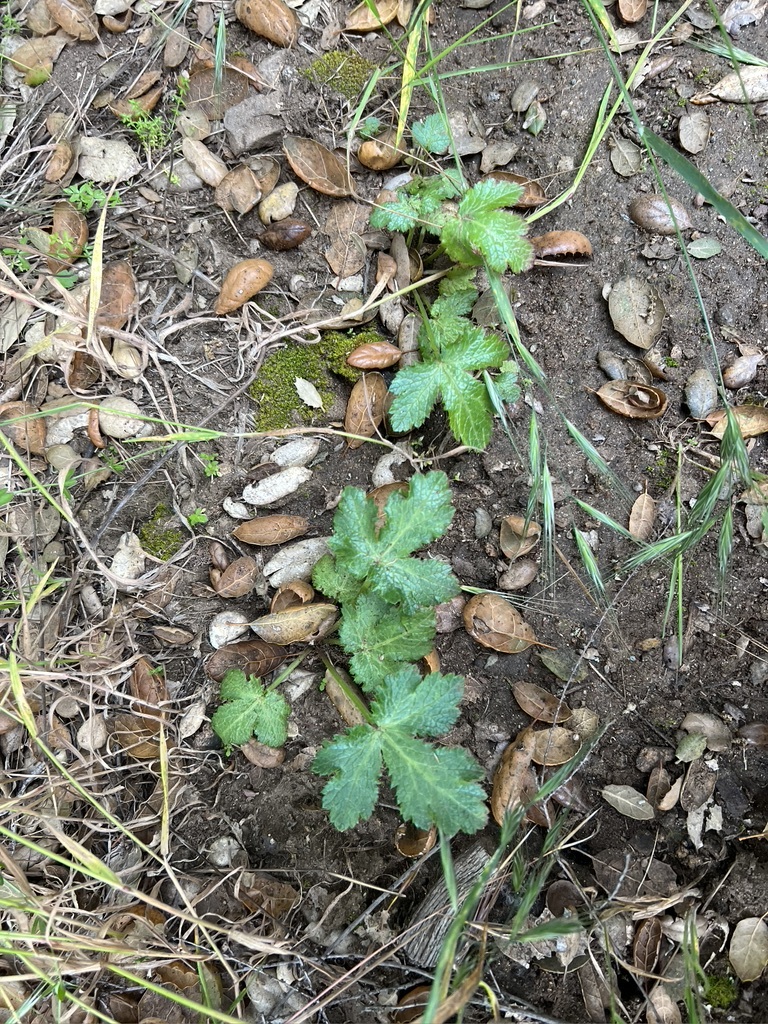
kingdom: Plantae
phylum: Tracheophyta
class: Magnoliopsida
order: Apiales
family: Apiaceae
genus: Sanicula
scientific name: Sanicula crassicaulis
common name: Western snakeroot
